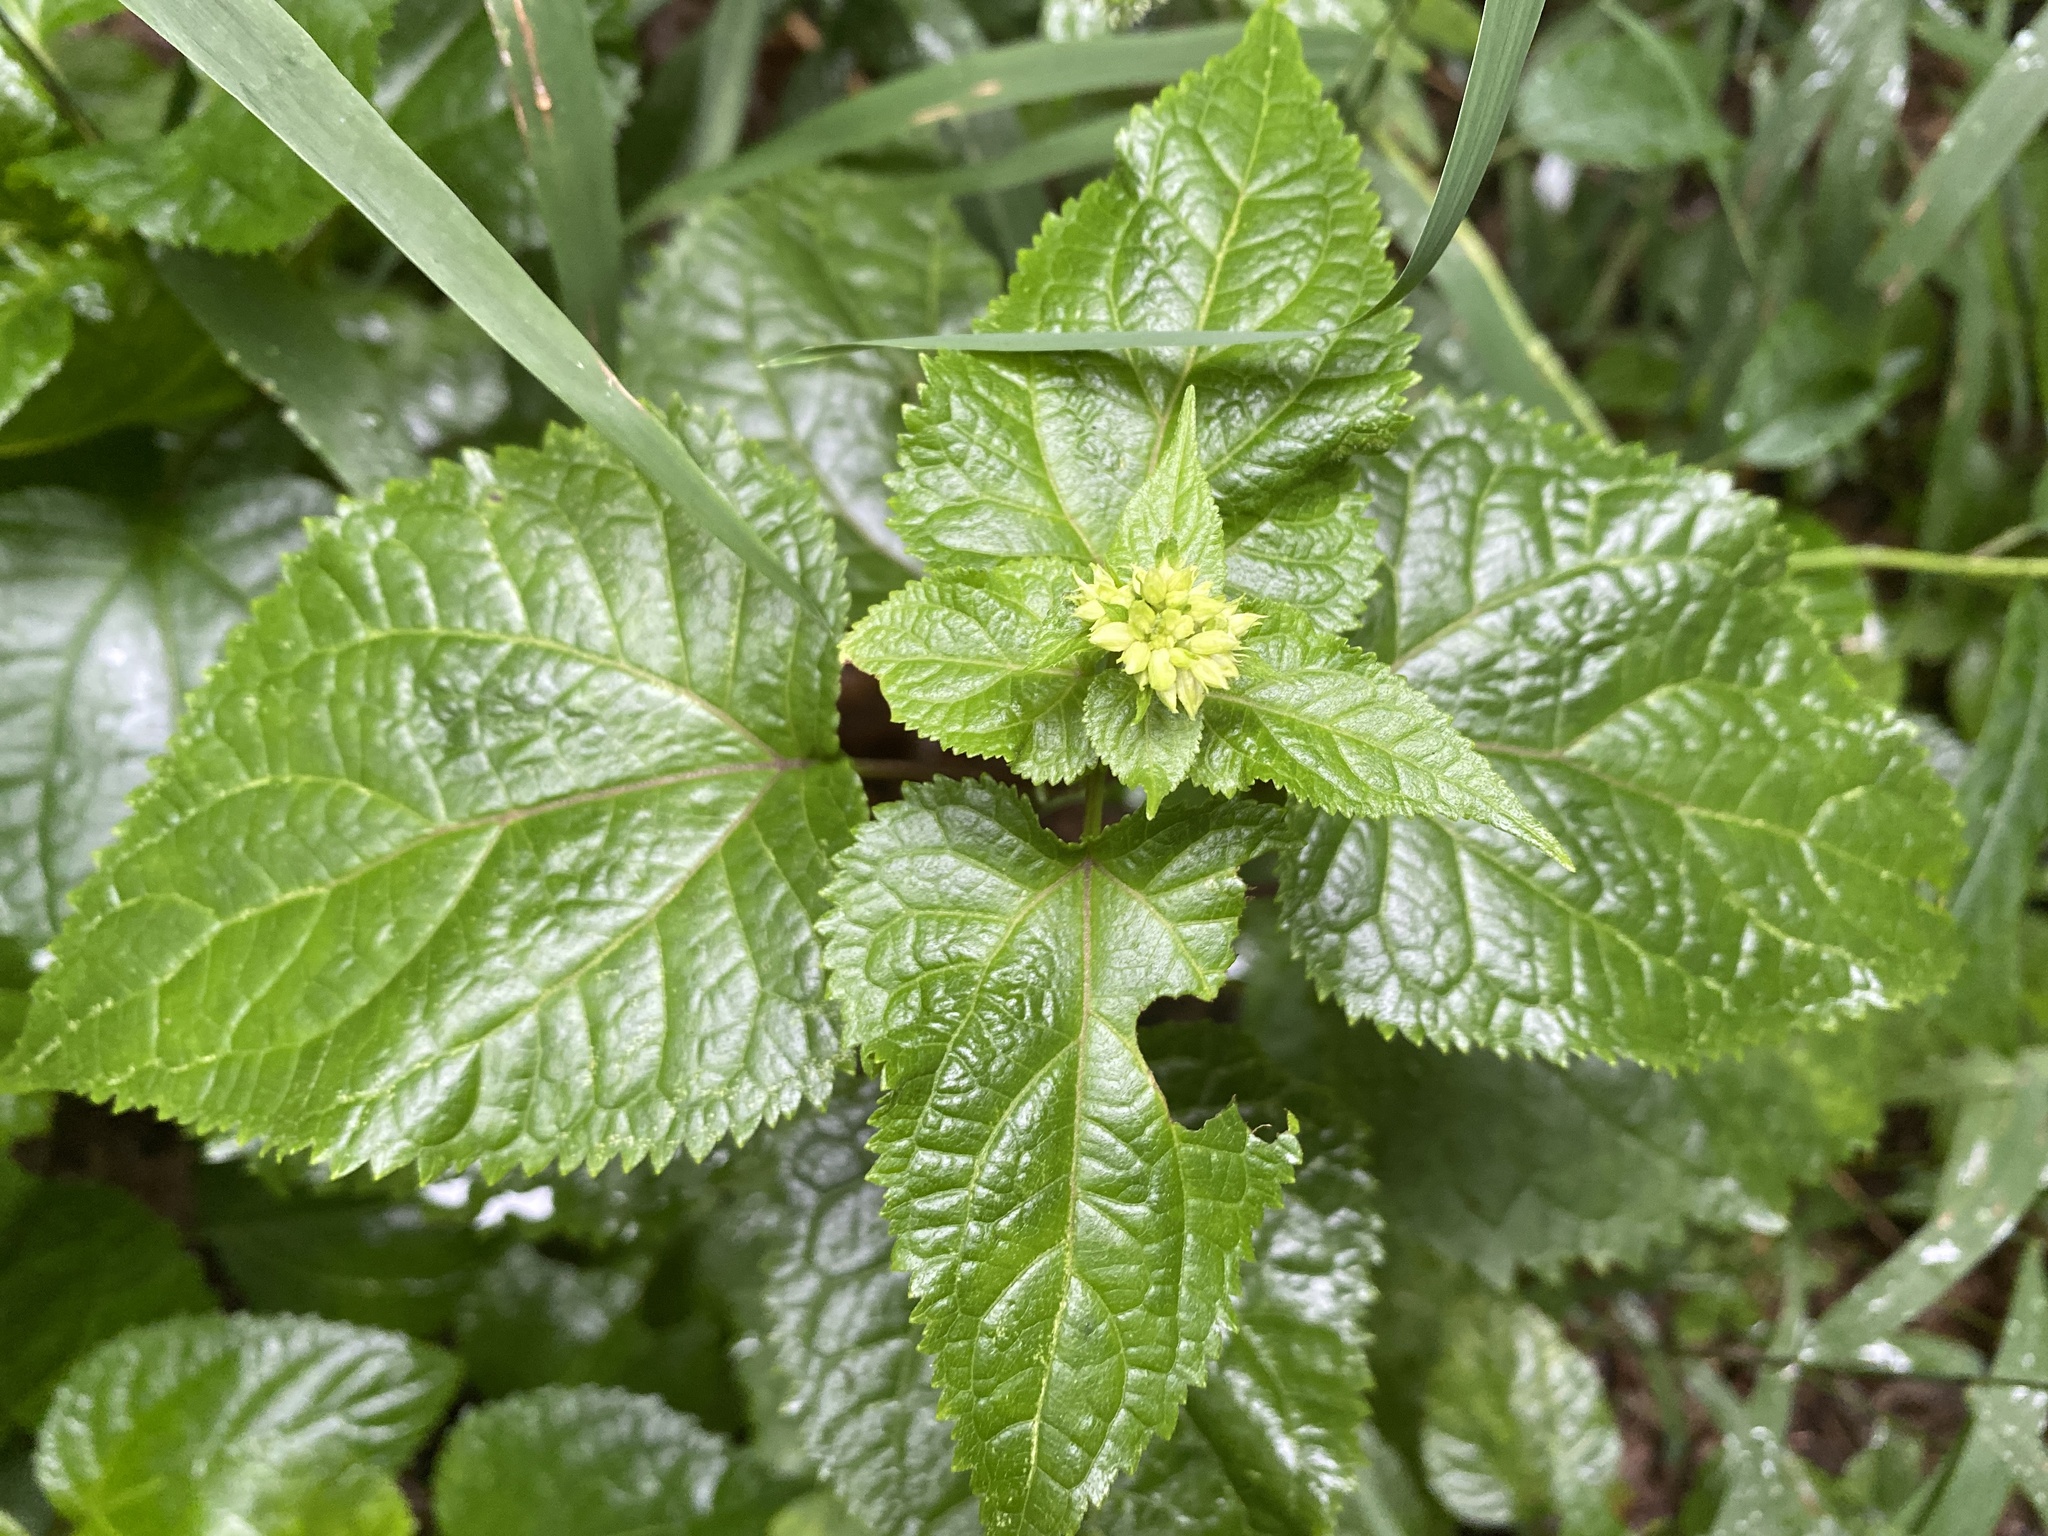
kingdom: Plantae
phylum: Tracheophyta
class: Magnoliopsida
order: Asterales
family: Asteraceae
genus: Ageratina
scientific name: Ageratina roanensis
